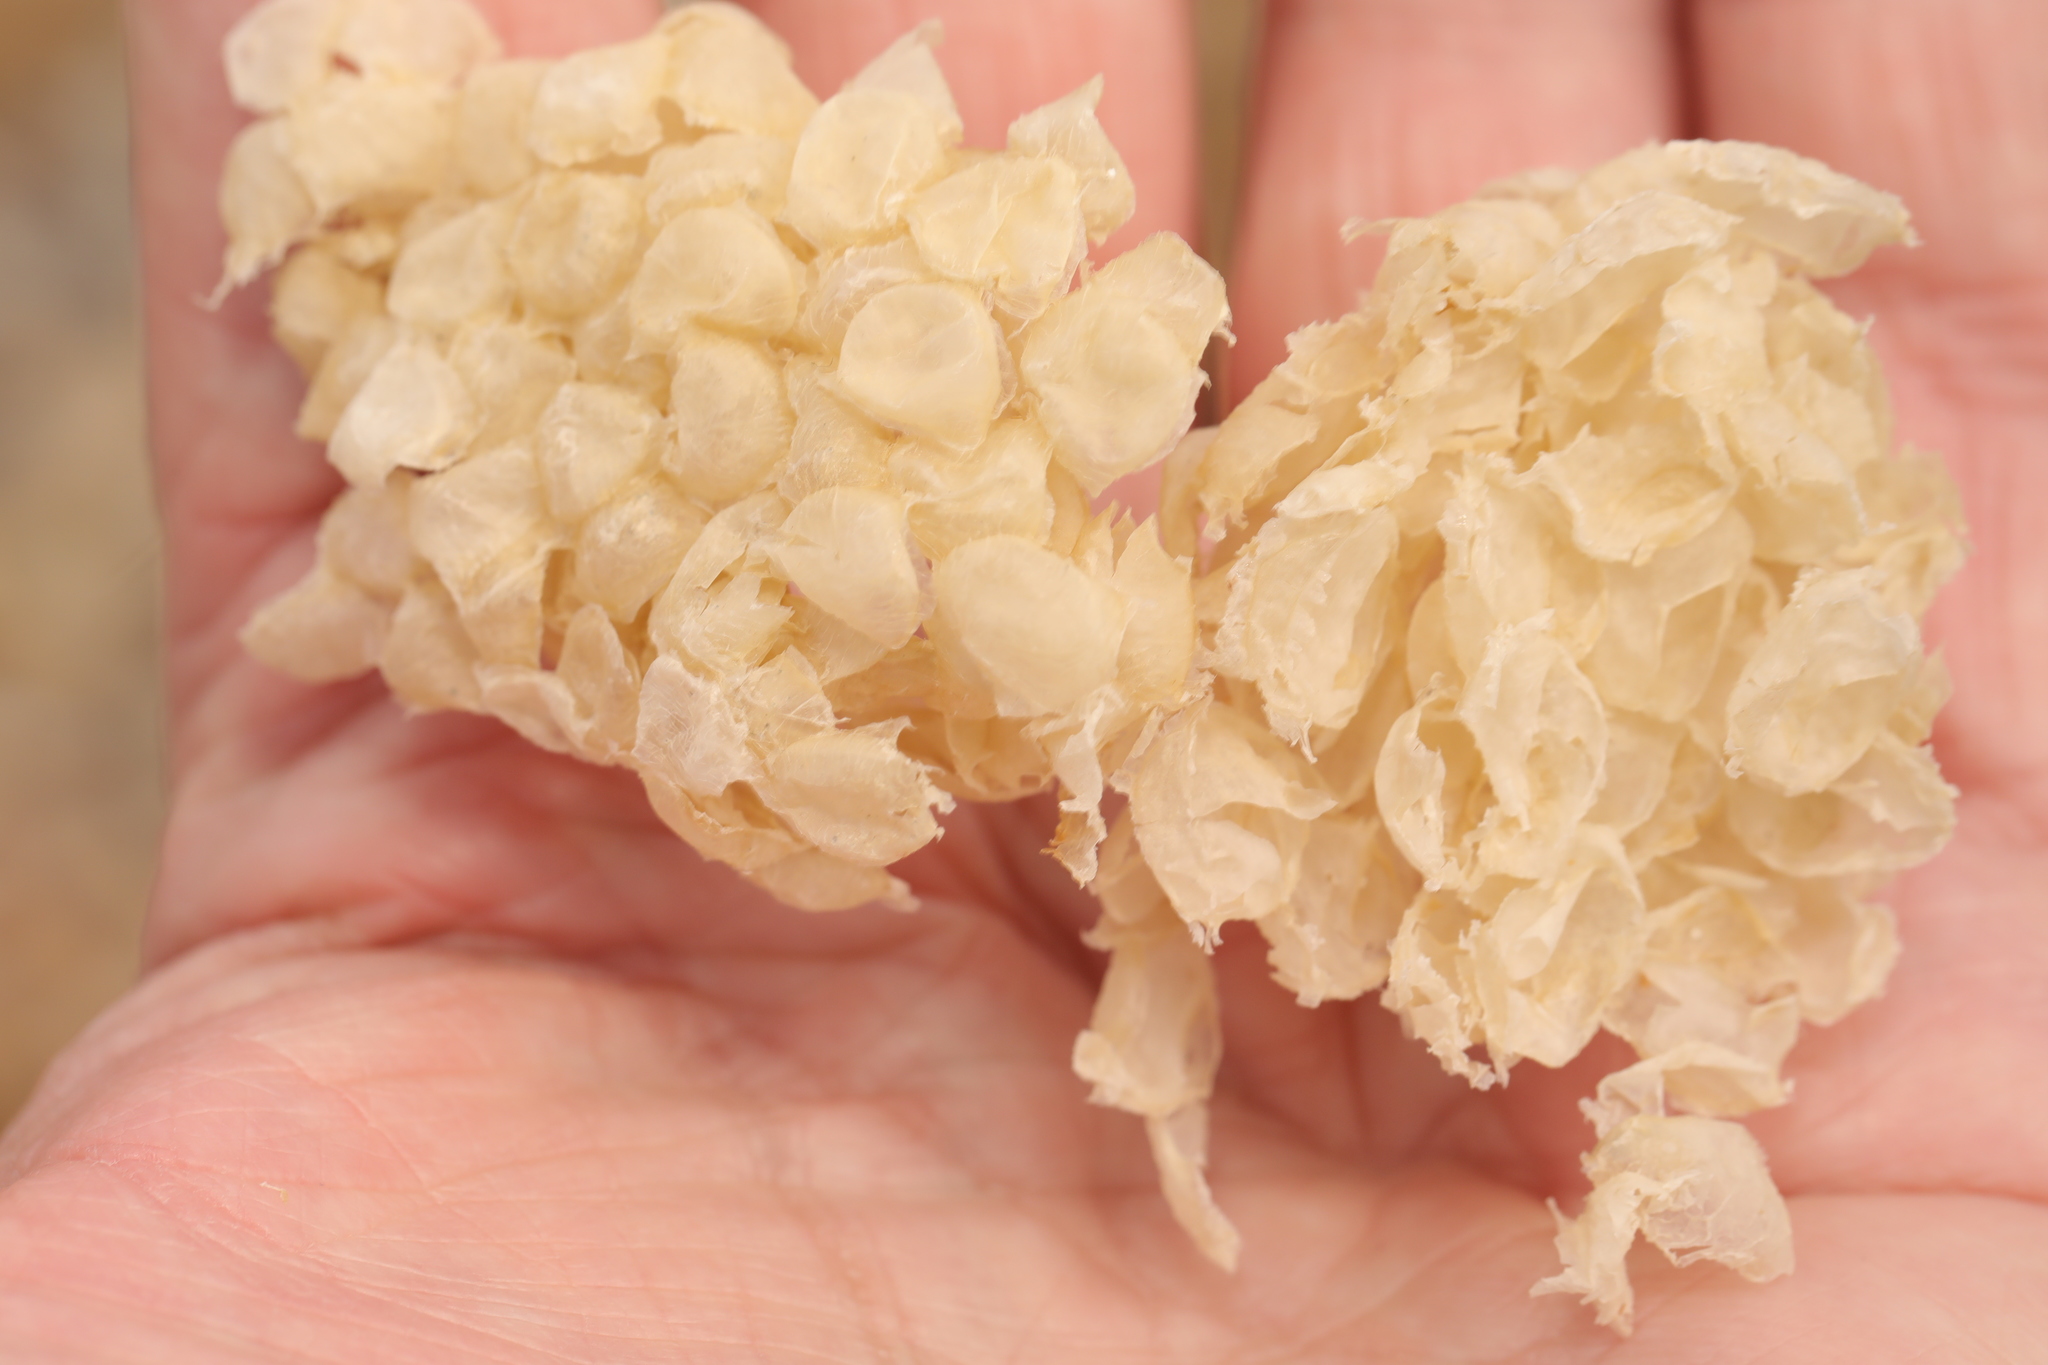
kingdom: Animalia
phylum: Mollusca
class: Gastropoda
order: Neogastropoda
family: Buccinidae
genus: Buccinum
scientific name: Buccinum undatum
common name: Common whelk
